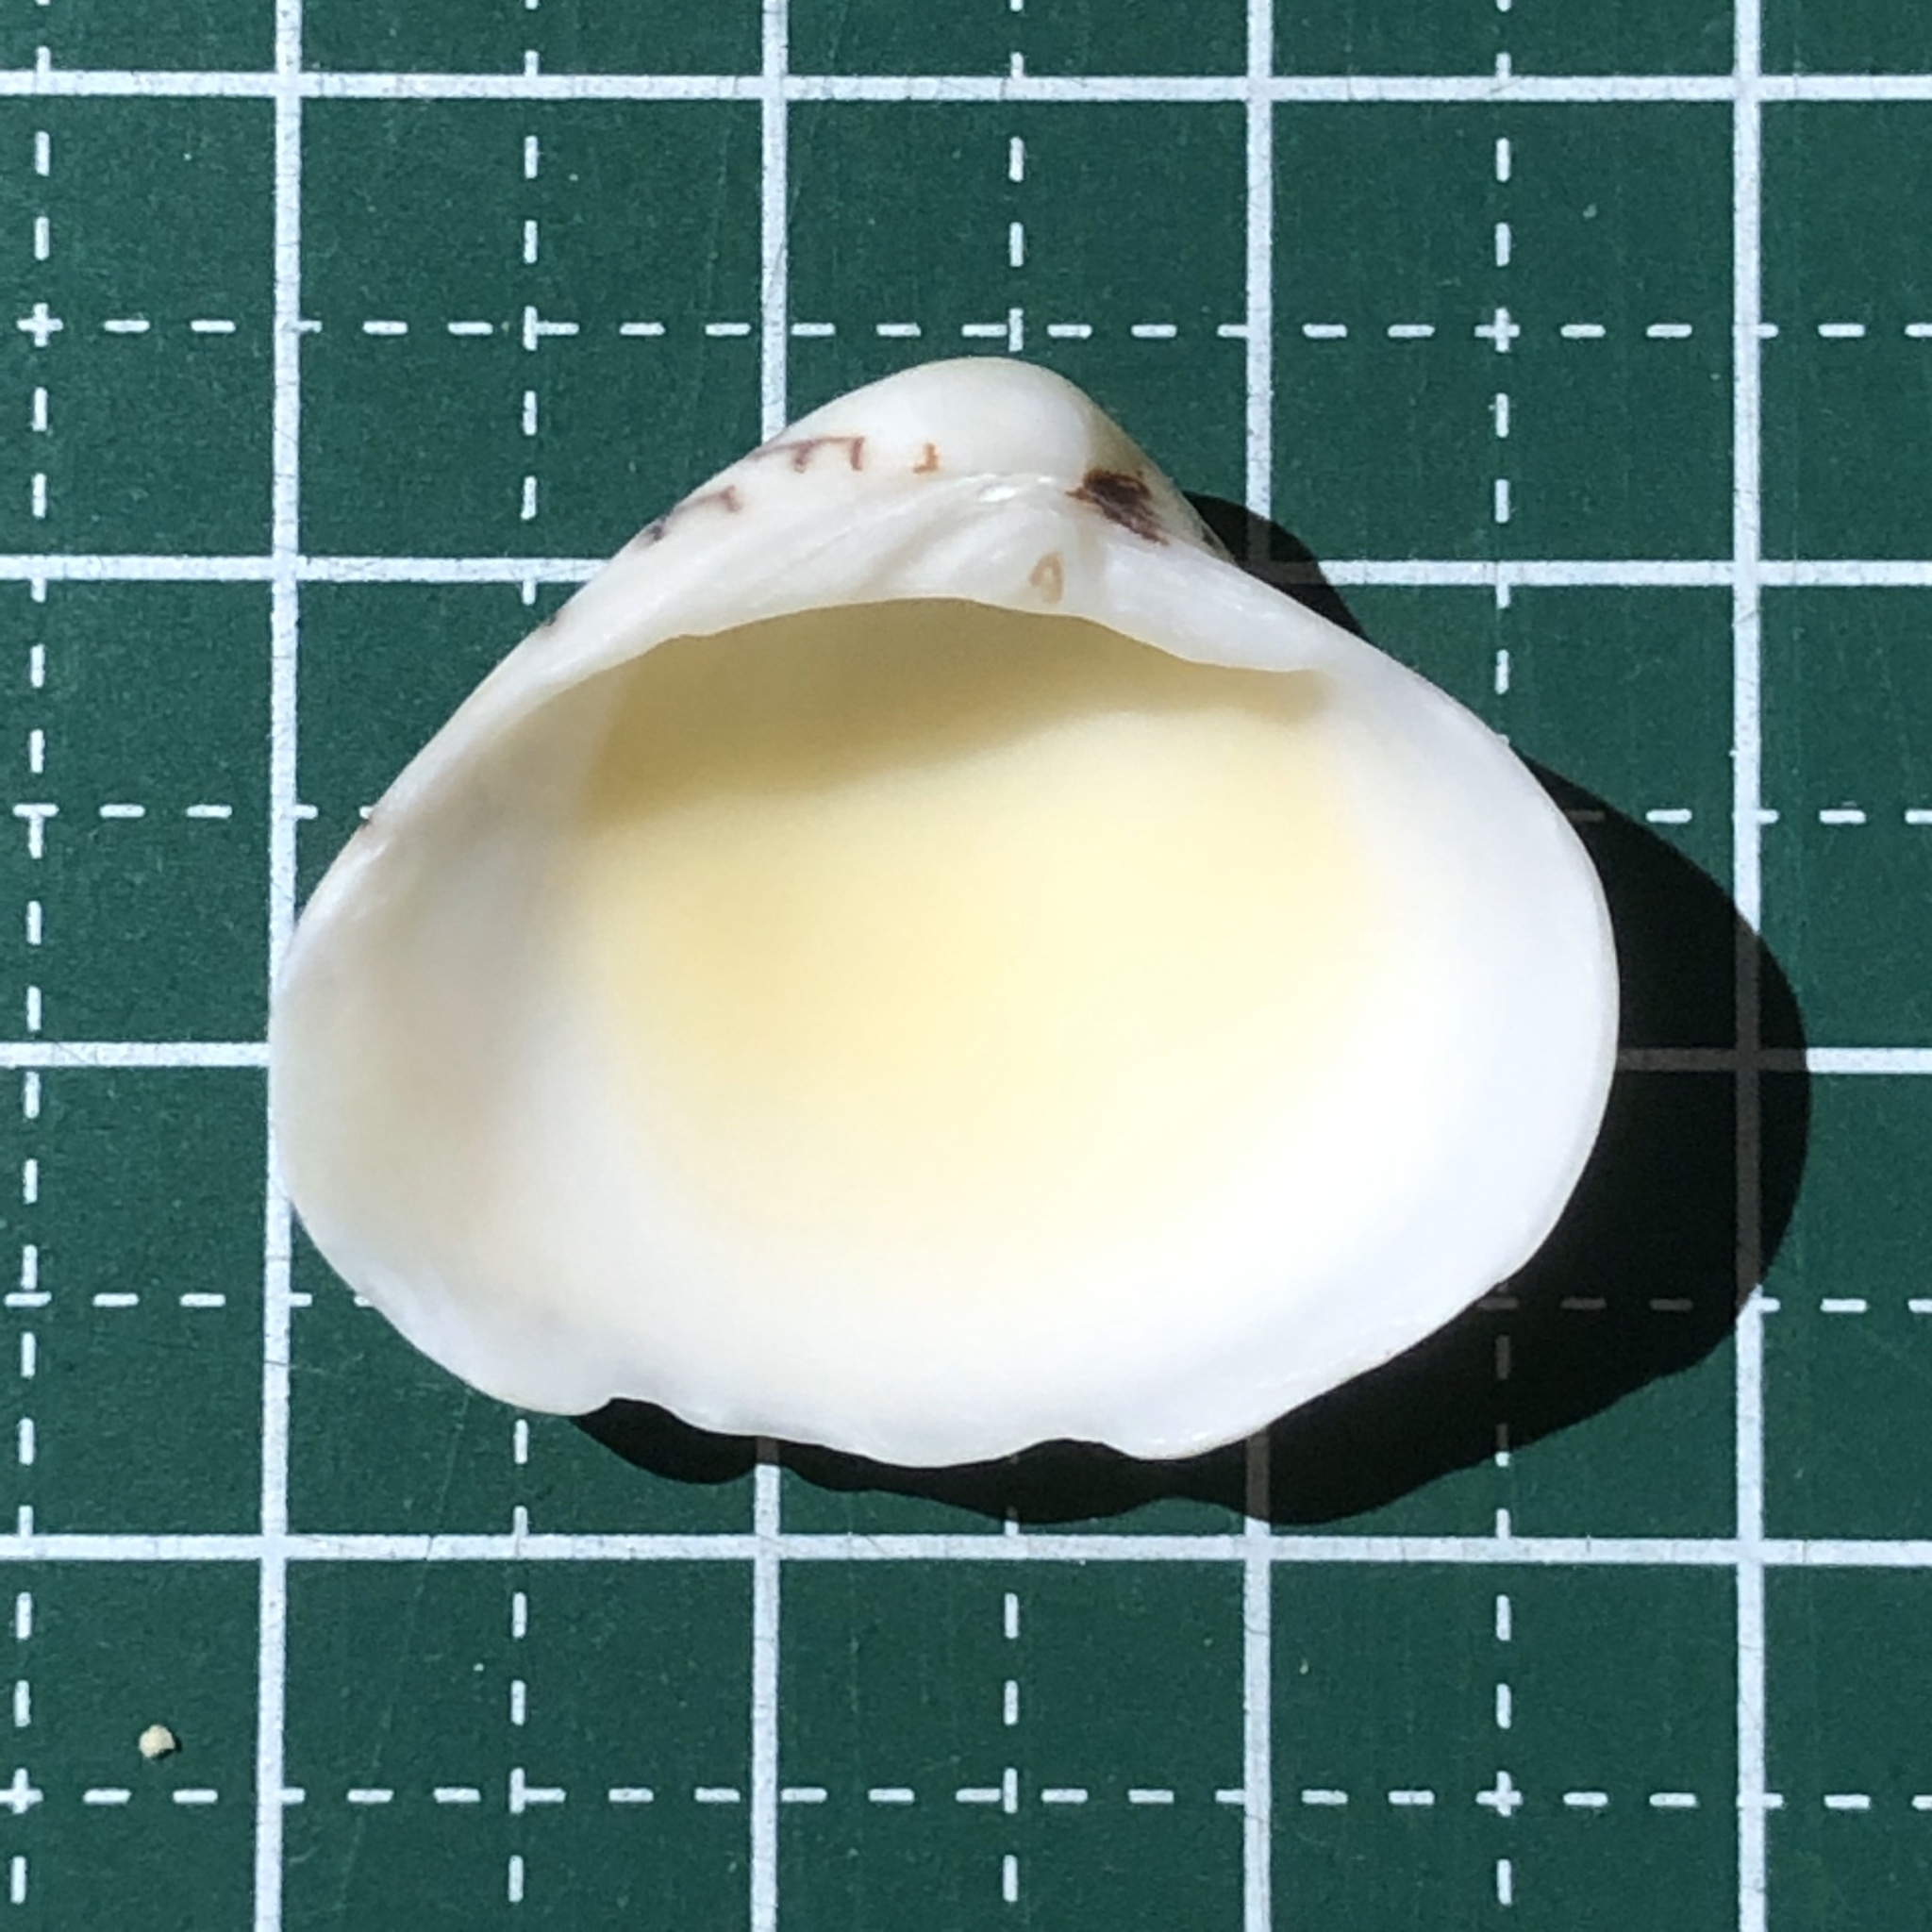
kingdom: Animalia
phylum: Mollusca
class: Bivalvia
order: Venerida
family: Veneridae
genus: Lioconcha
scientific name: Lioconcha ornata
